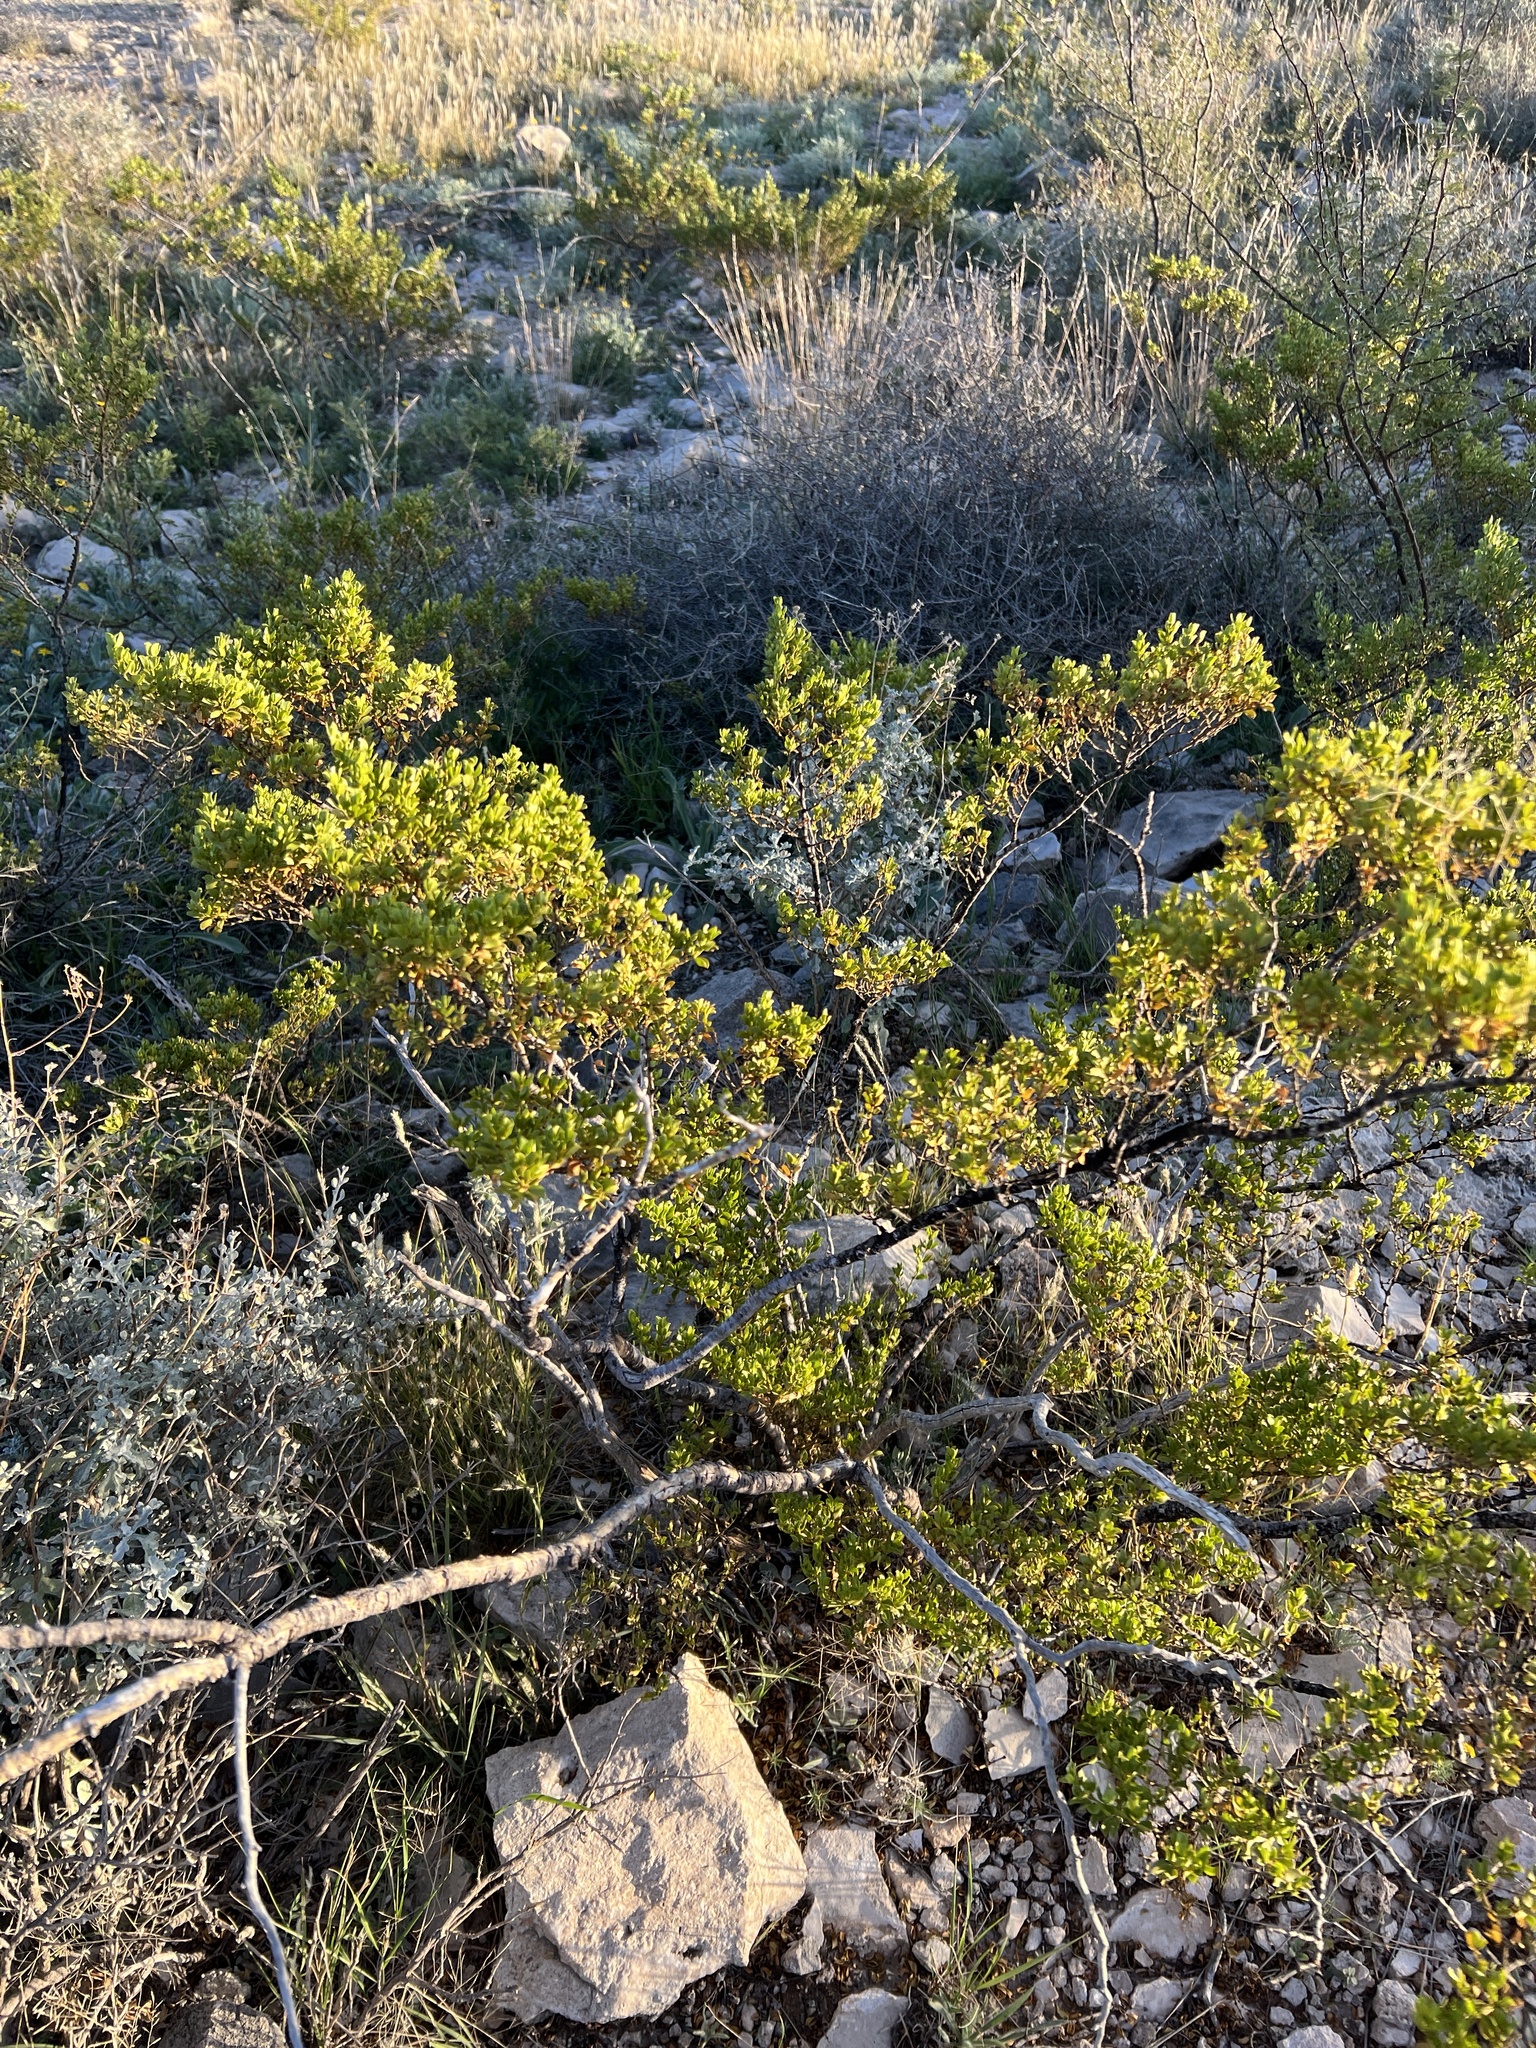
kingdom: Plantae
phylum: Tracheophyta
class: Magnoliopsida
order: Zygophyllales
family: Zygophyllaceae
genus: Larrea
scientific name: Larrea tridentata
